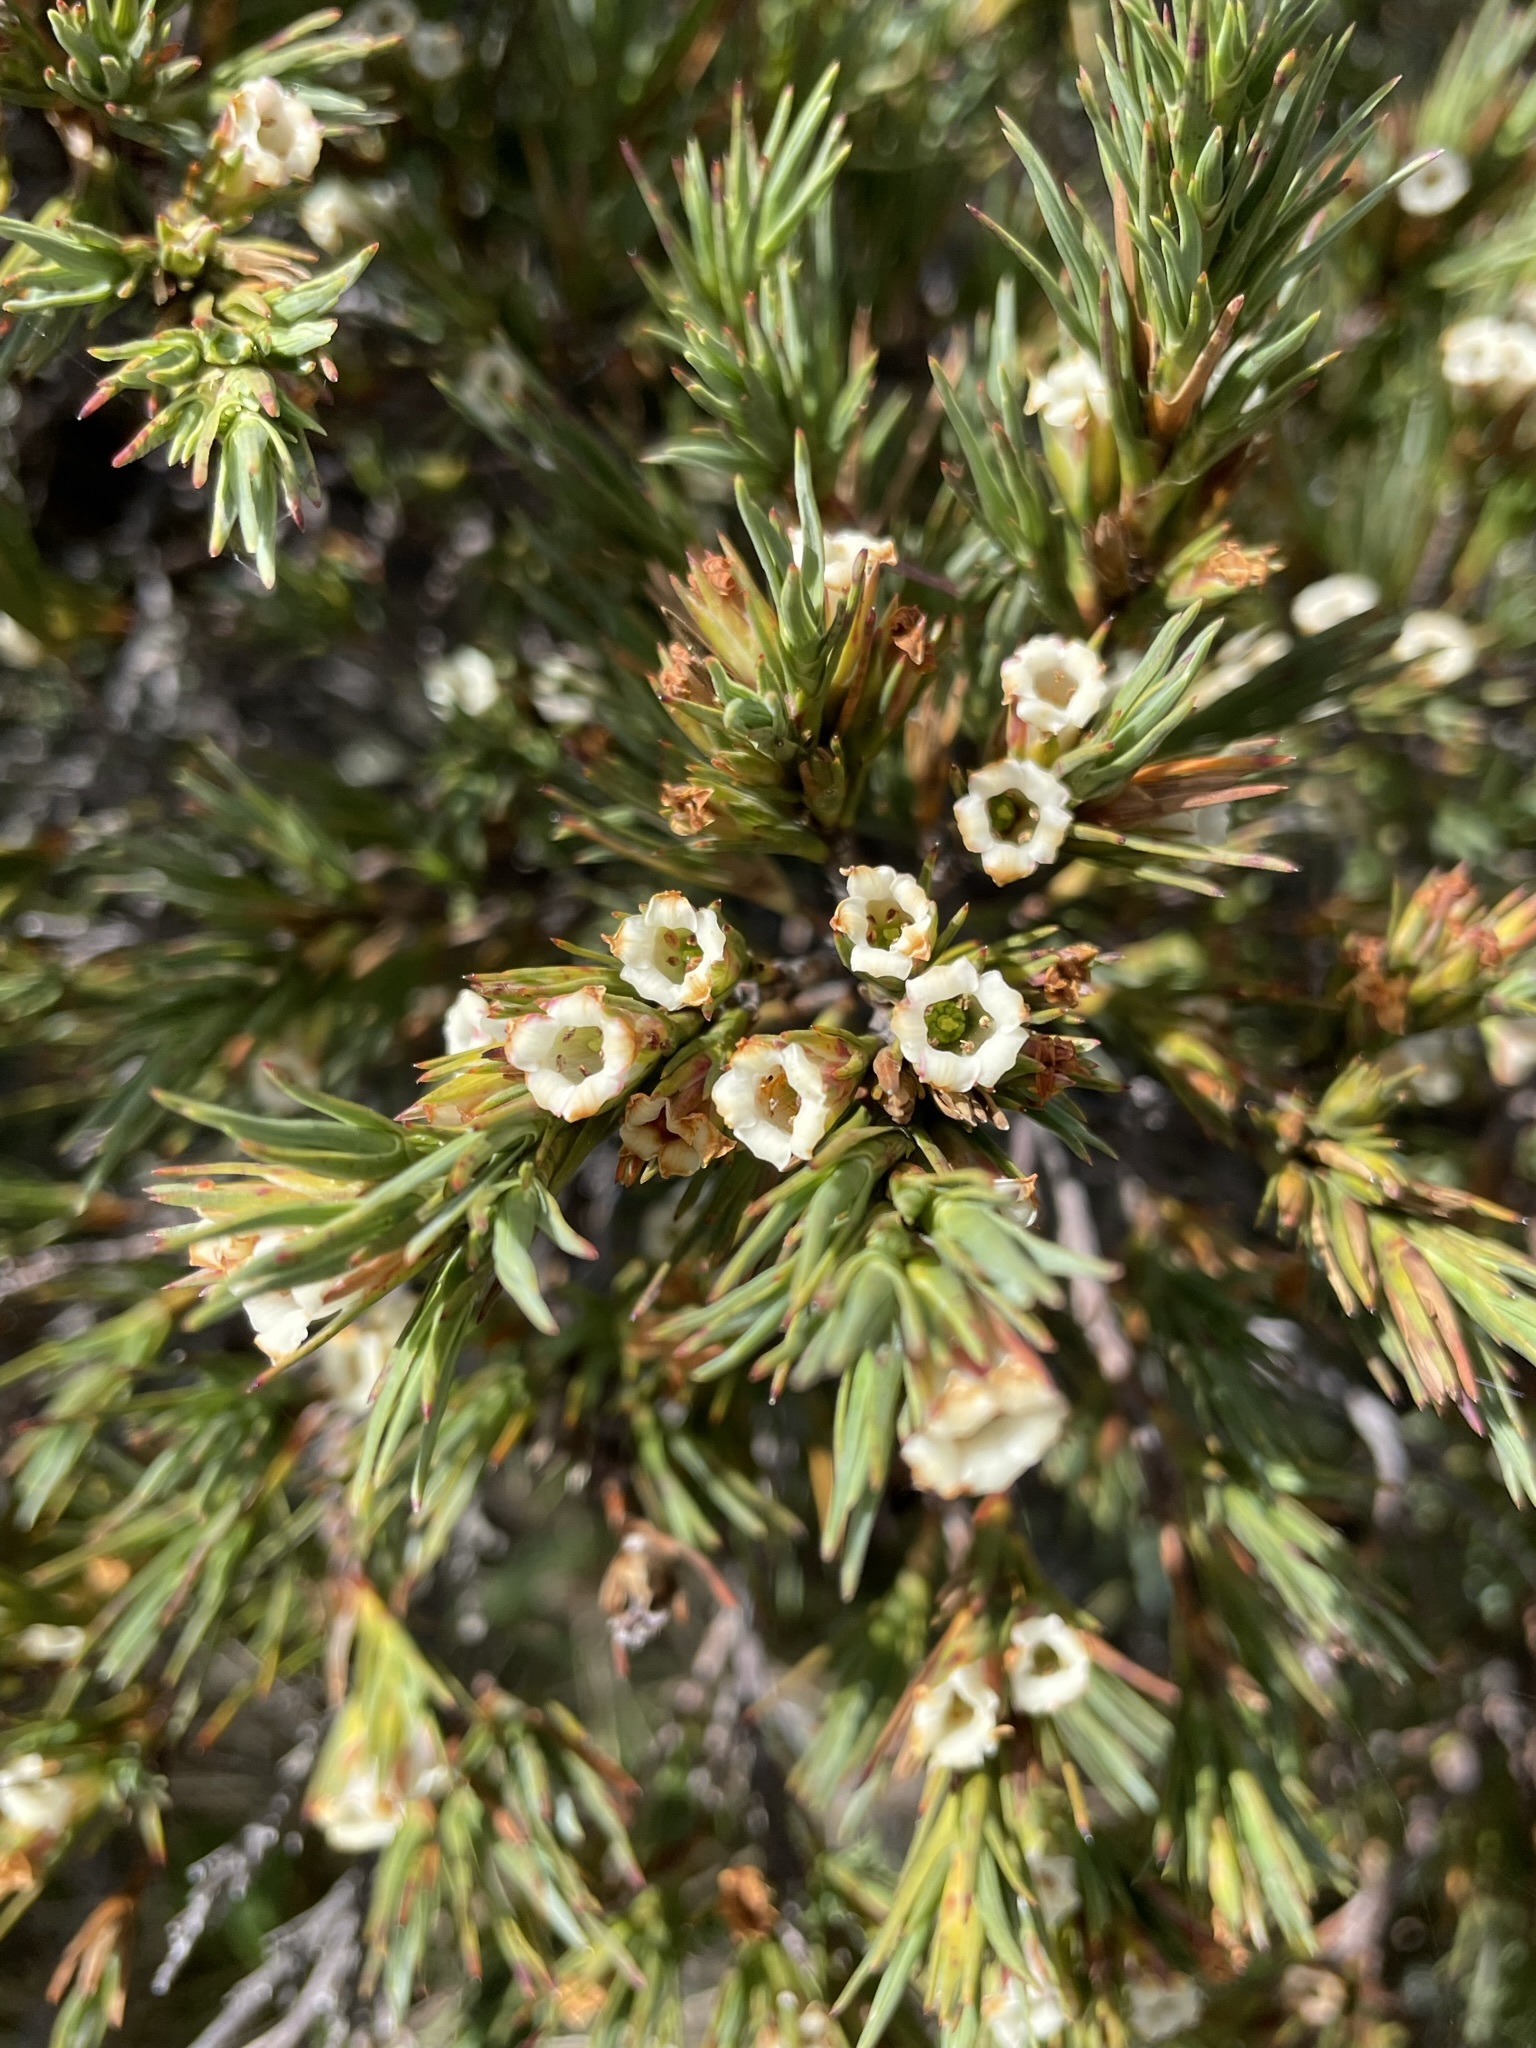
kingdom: Plantae
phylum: Tracheophyta
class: Magnoliopsida
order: Ericales
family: Ericaceae
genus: Dracophyllum
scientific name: Dracophyllum rosmarinifolium
